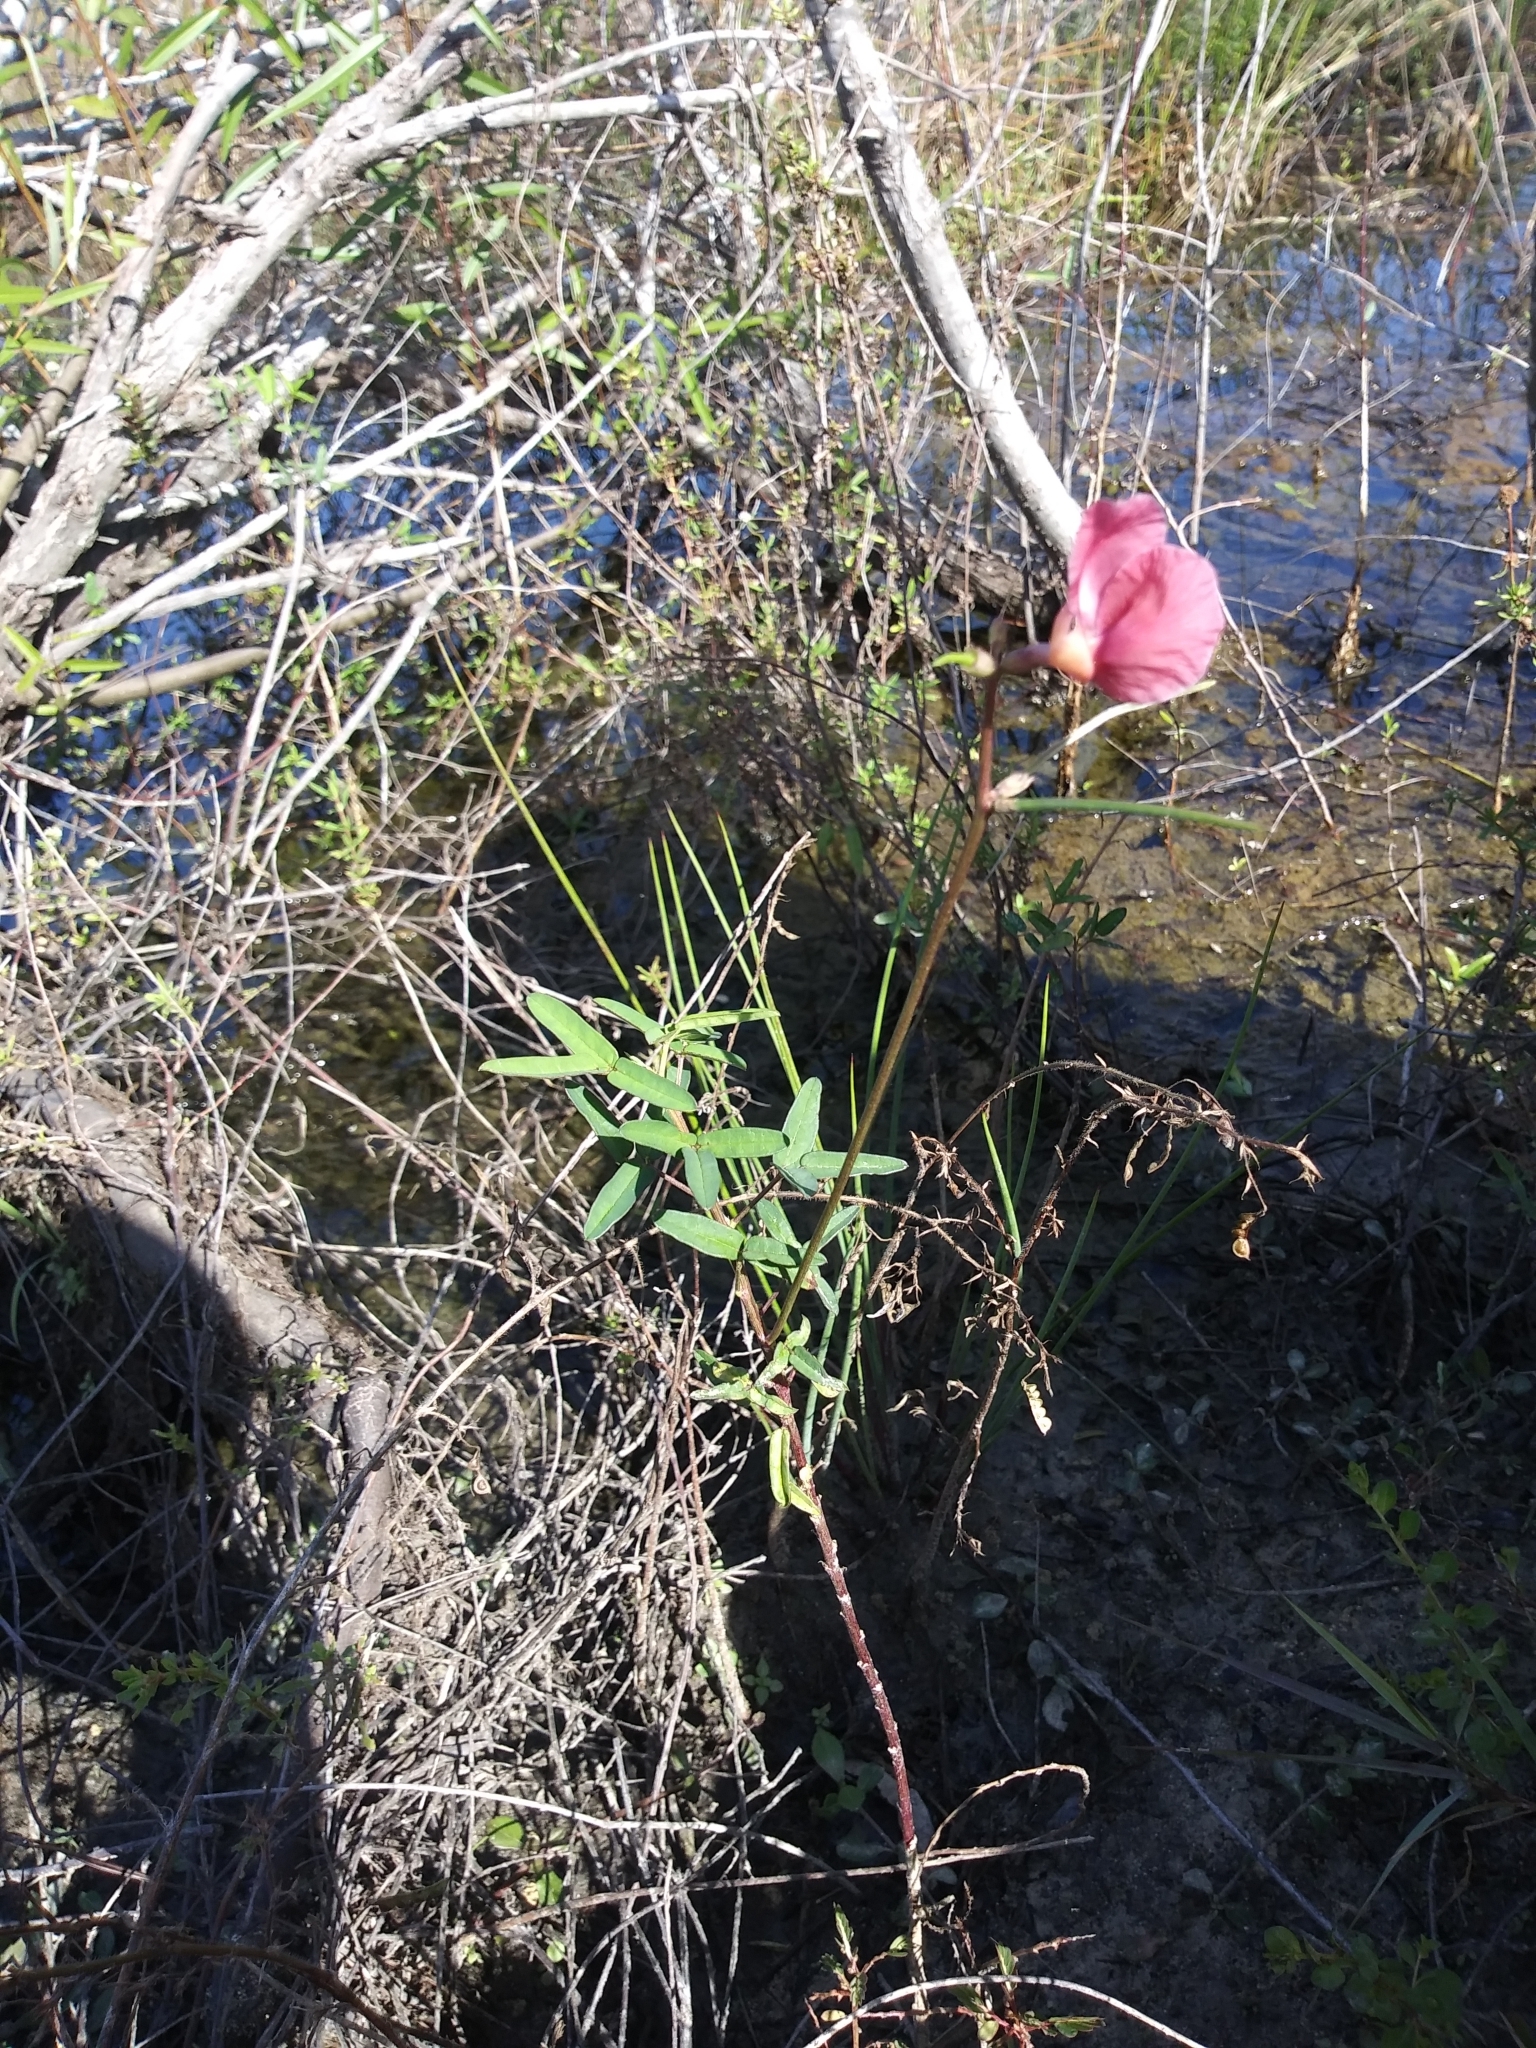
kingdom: Plantae
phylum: Tracheophyta
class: Magnoliopsida
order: Fabales
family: Fabaceae
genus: Macroptilium
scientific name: Macroptilium lathyroides
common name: Wild bushbean
